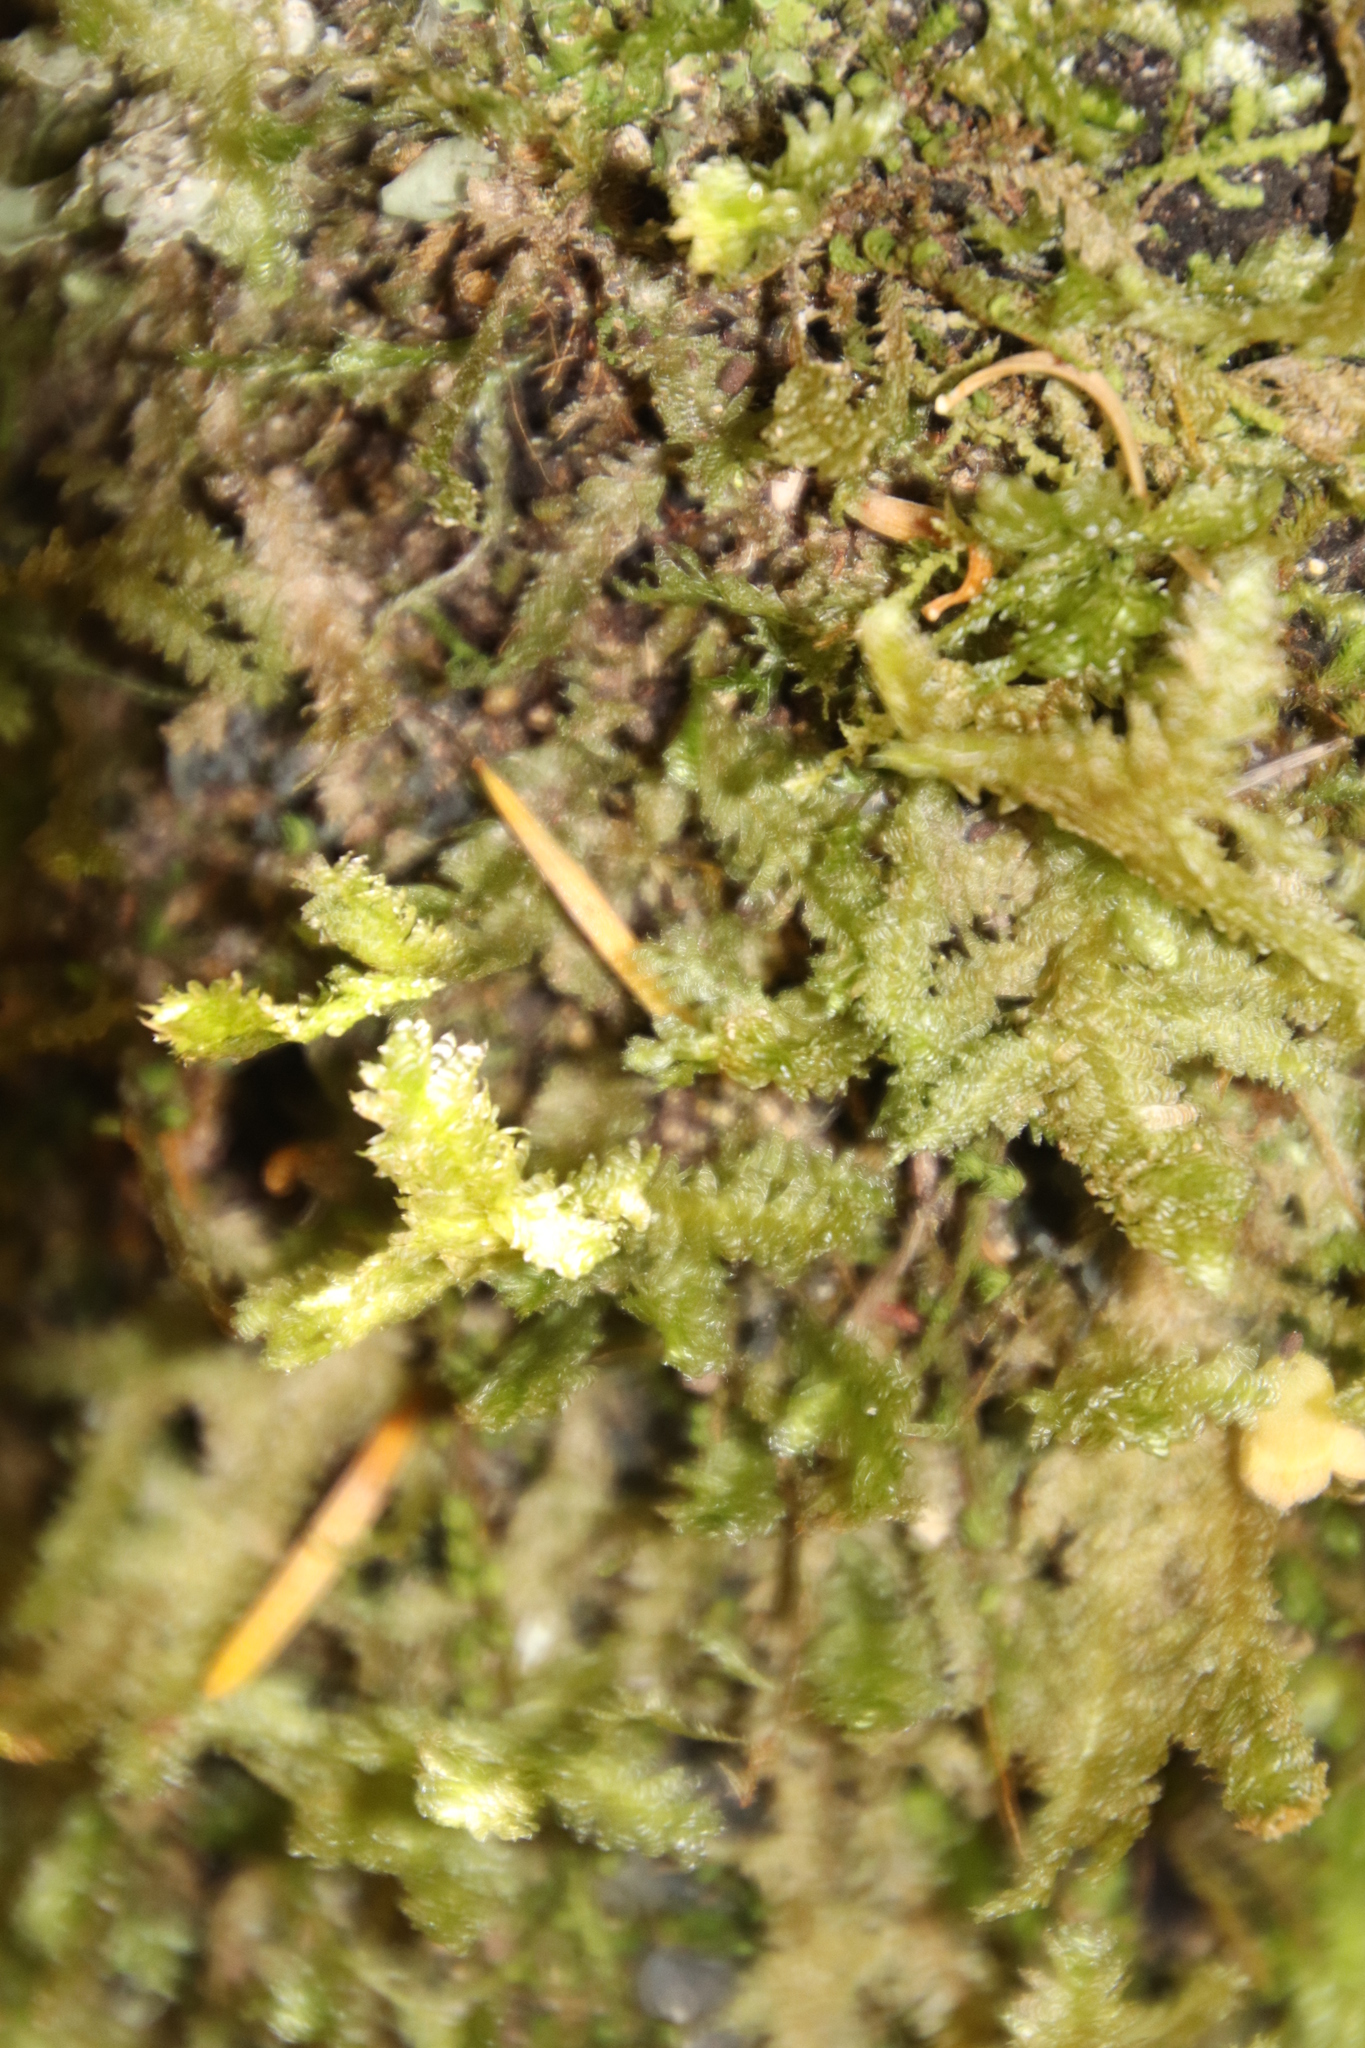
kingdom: Plantae
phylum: Bryophyta
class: Bryopsida
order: Hypnales
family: Neckeraceae
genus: Alleniella
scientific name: Alleniella ehrenbergii
